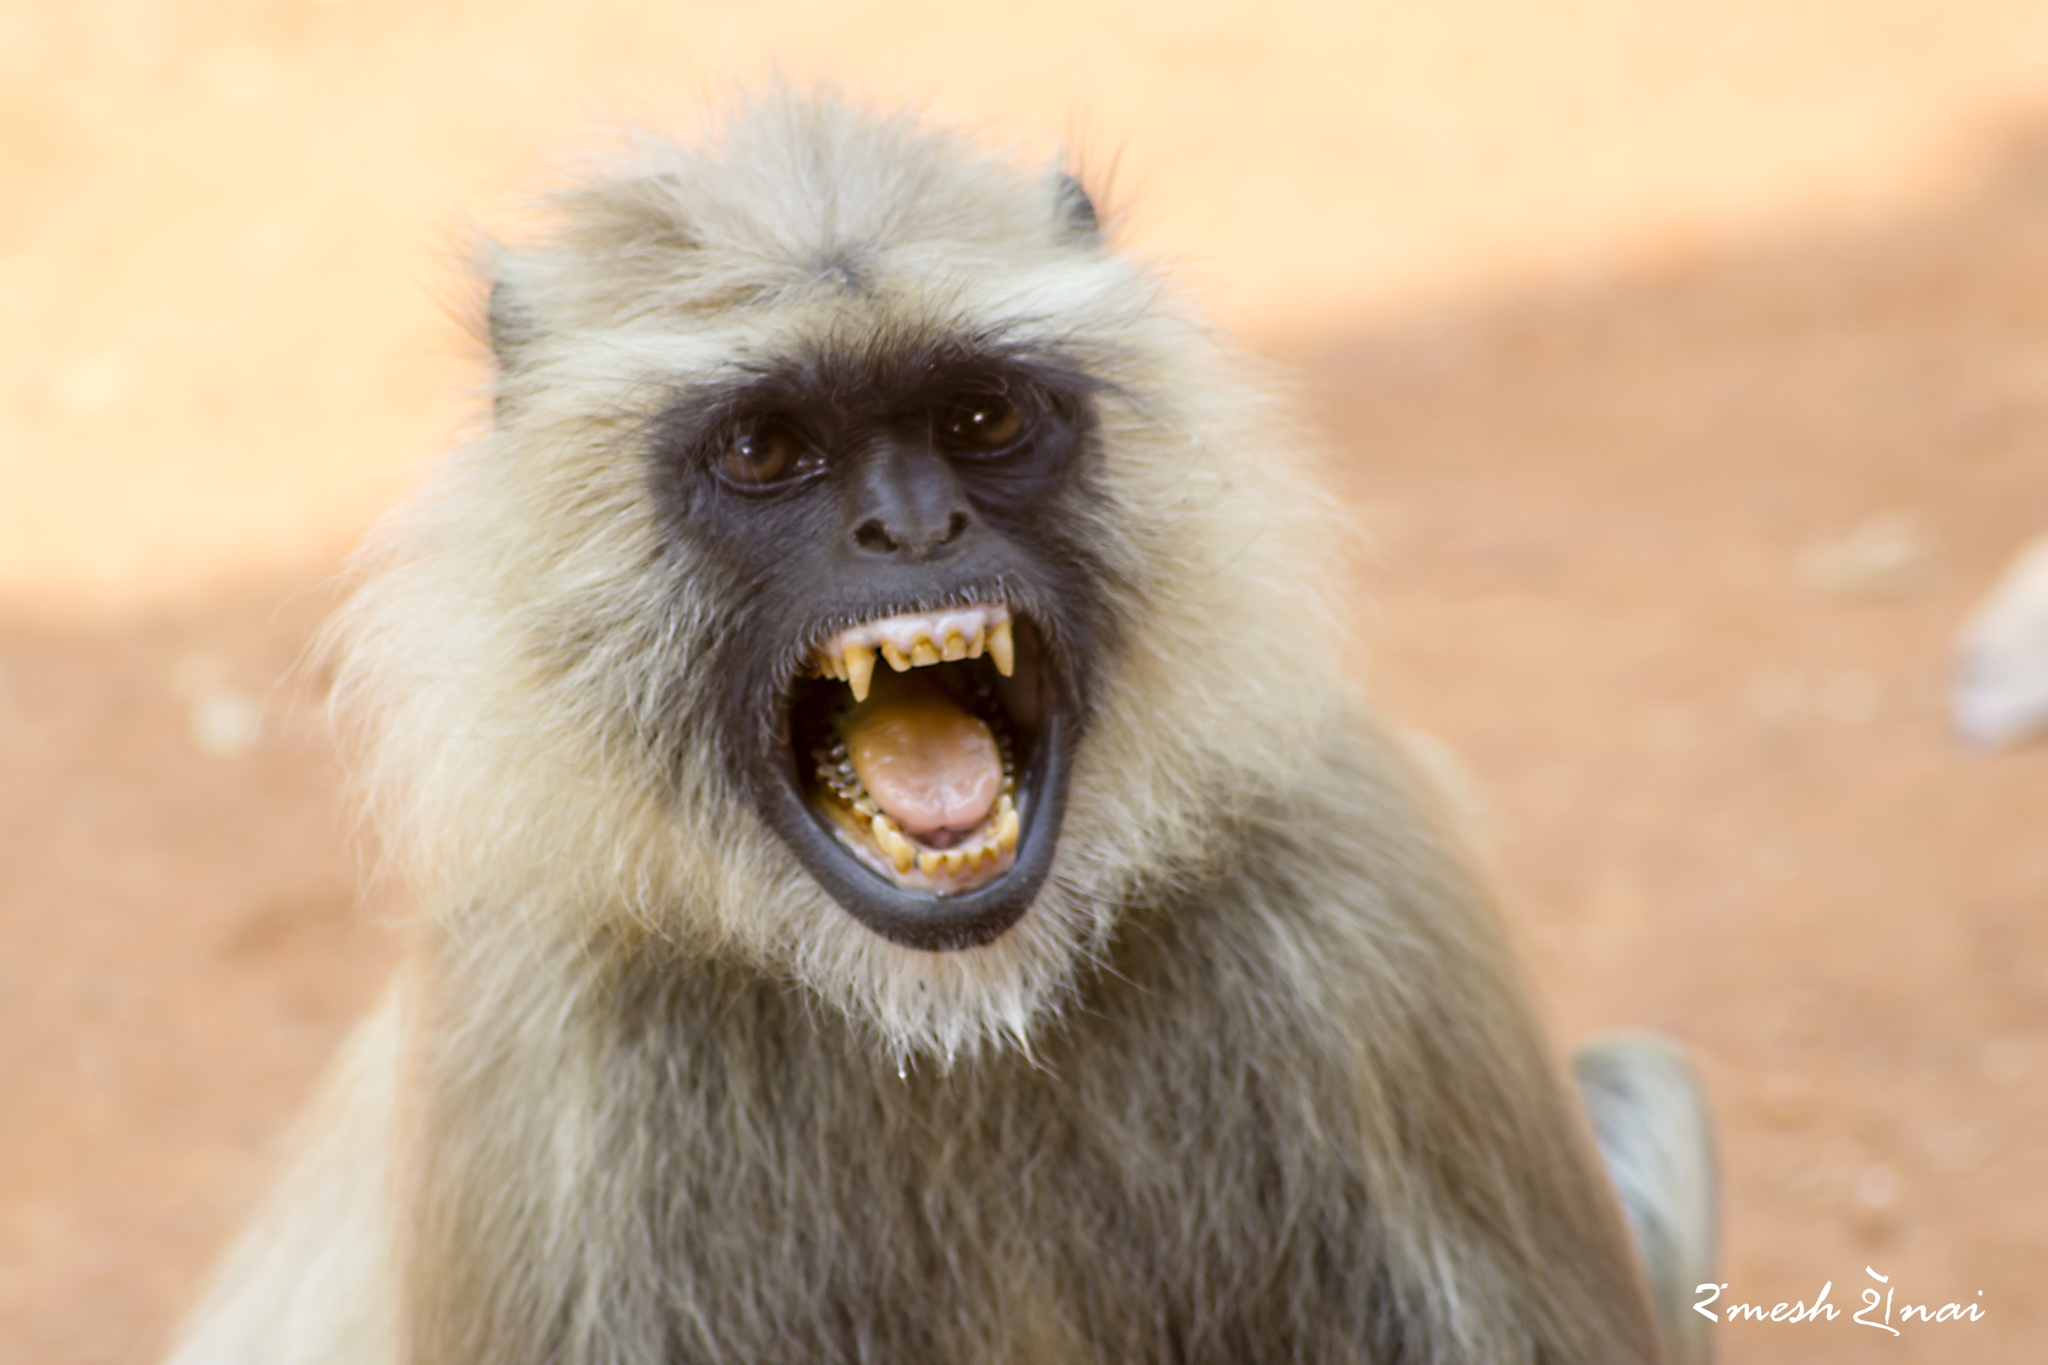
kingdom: Animalia
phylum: Chordata
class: Mammalia
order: Primates
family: Cercopithecidae
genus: Semnopithecus
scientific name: Semnopithecus entellus
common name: Northern plains gray langur
